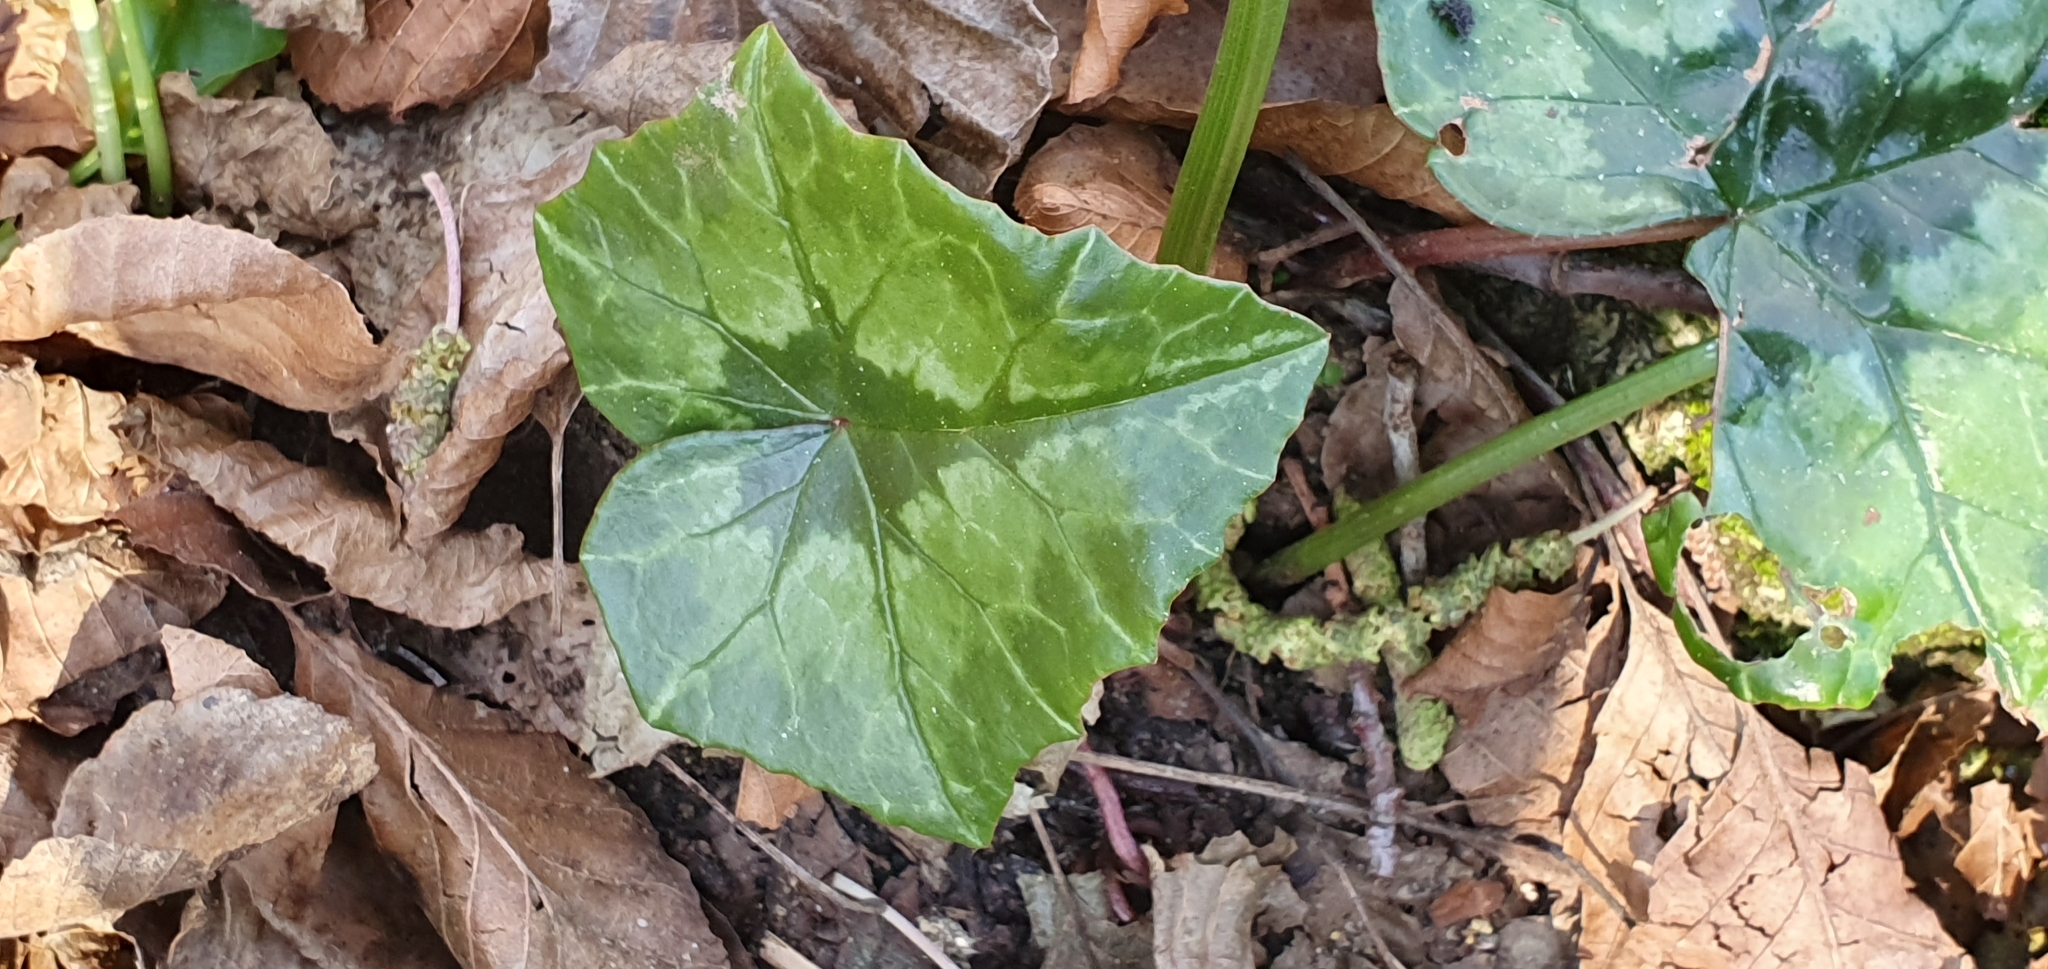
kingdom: Plantae
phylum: Tracheophyta
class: Magnoliopsida
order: Ericales
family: Primulaceae
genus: Cyclamen
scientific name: Cyclamen africanum
